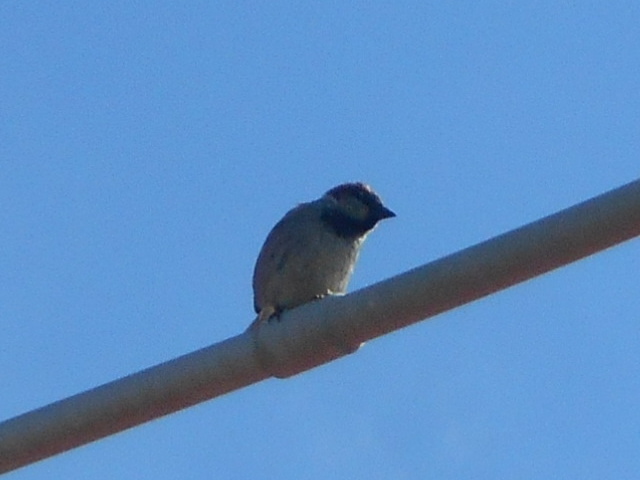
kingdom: Animalia
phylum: Chordata
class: Aves
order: Passeriformes
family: Passeridae
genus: Passer
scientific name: Passer domesticus
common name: House sparrow
